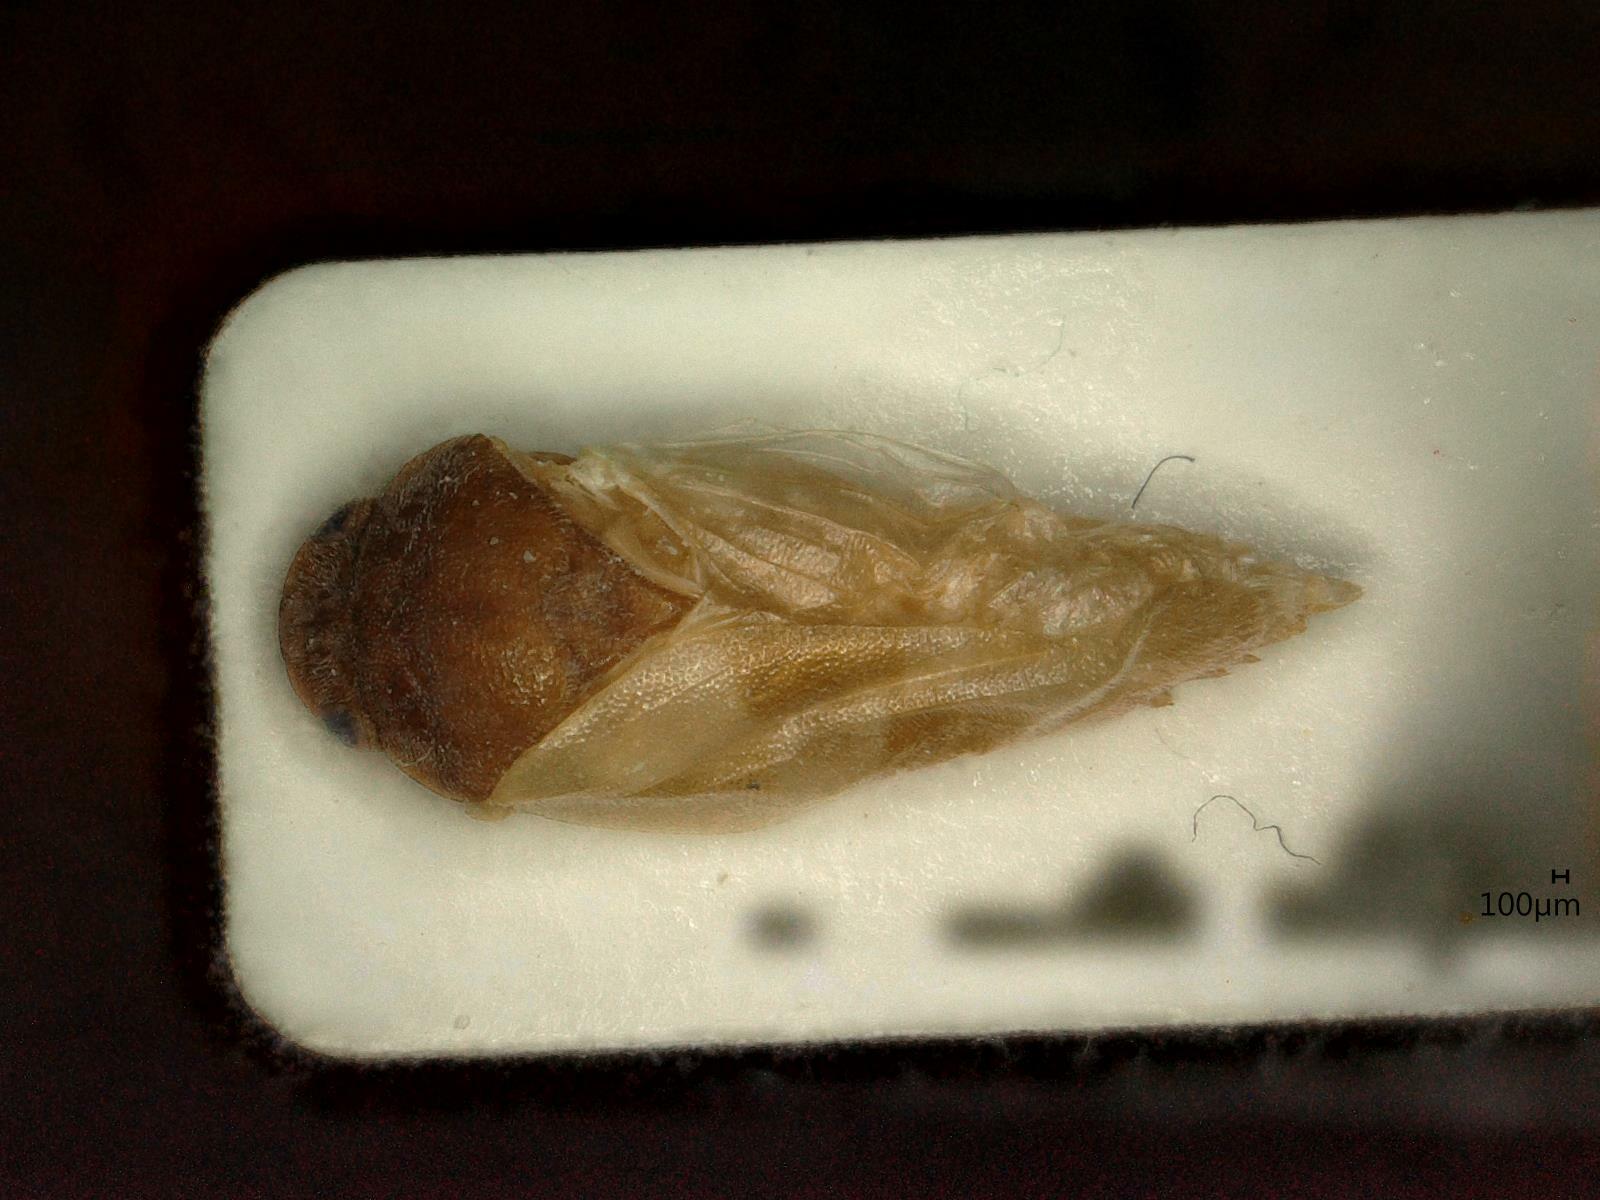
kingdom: Animalia
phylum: Arthropoda
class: Insecta
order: Hemiptera
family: Cercopidae
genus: Haematoloma
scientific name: Haematoloma dorsata
